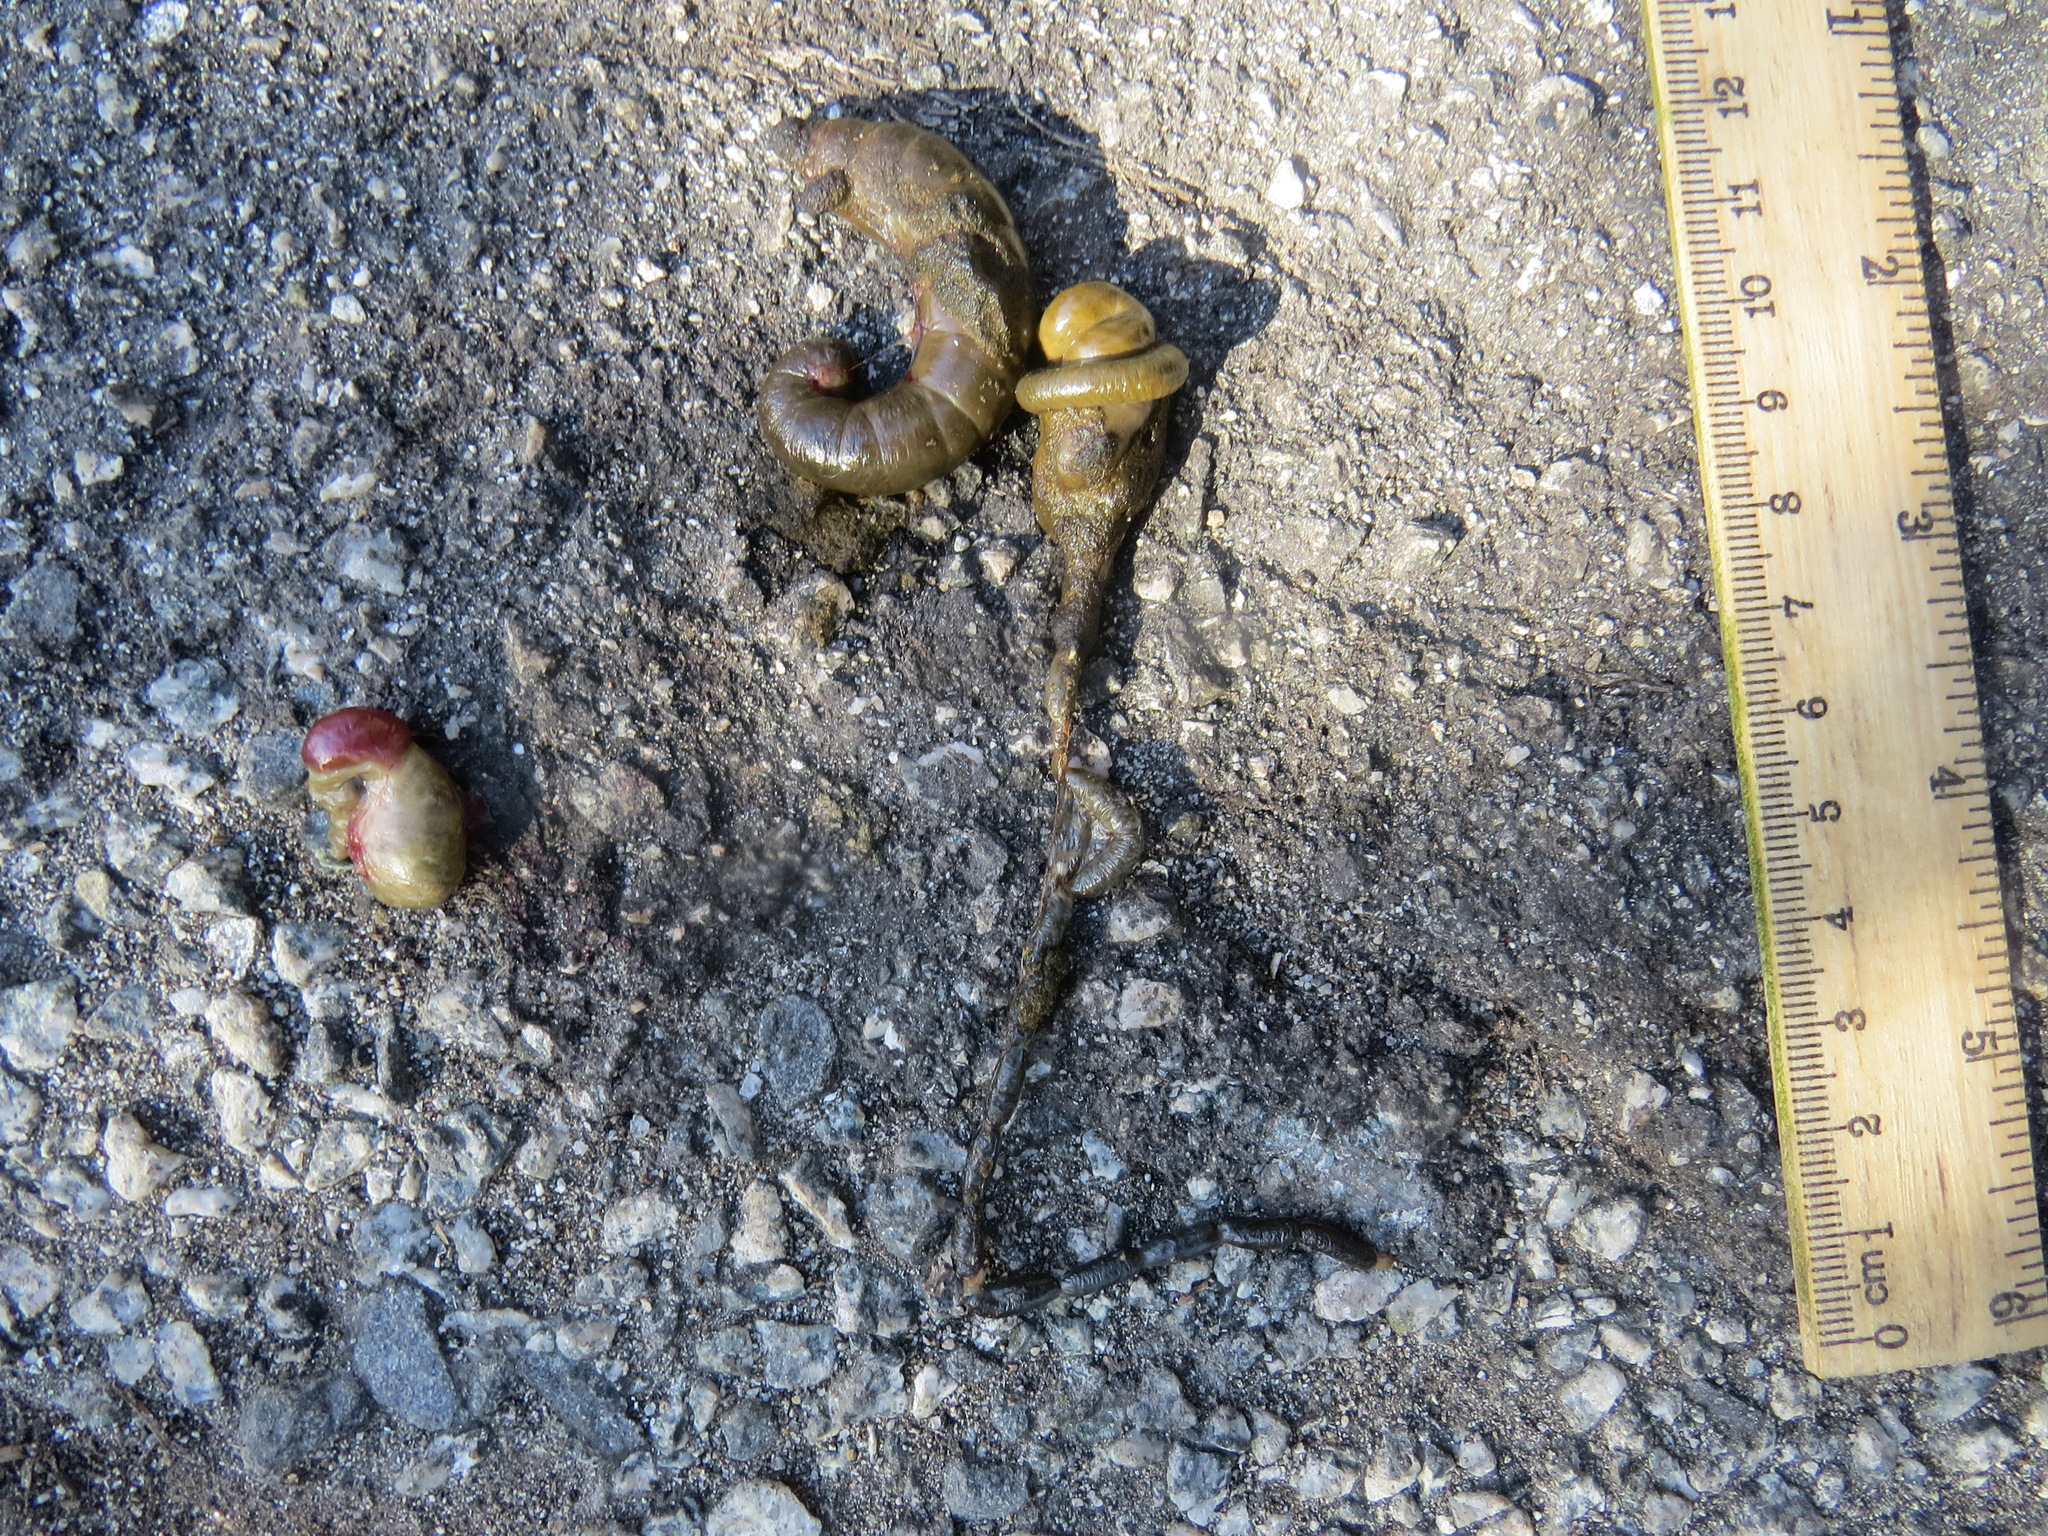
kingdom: Animalia
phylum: Chordata
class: Mammalia
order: Rodentia
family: Cricetidae
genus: Microtus
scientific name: Microtus californicus
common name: California vole
